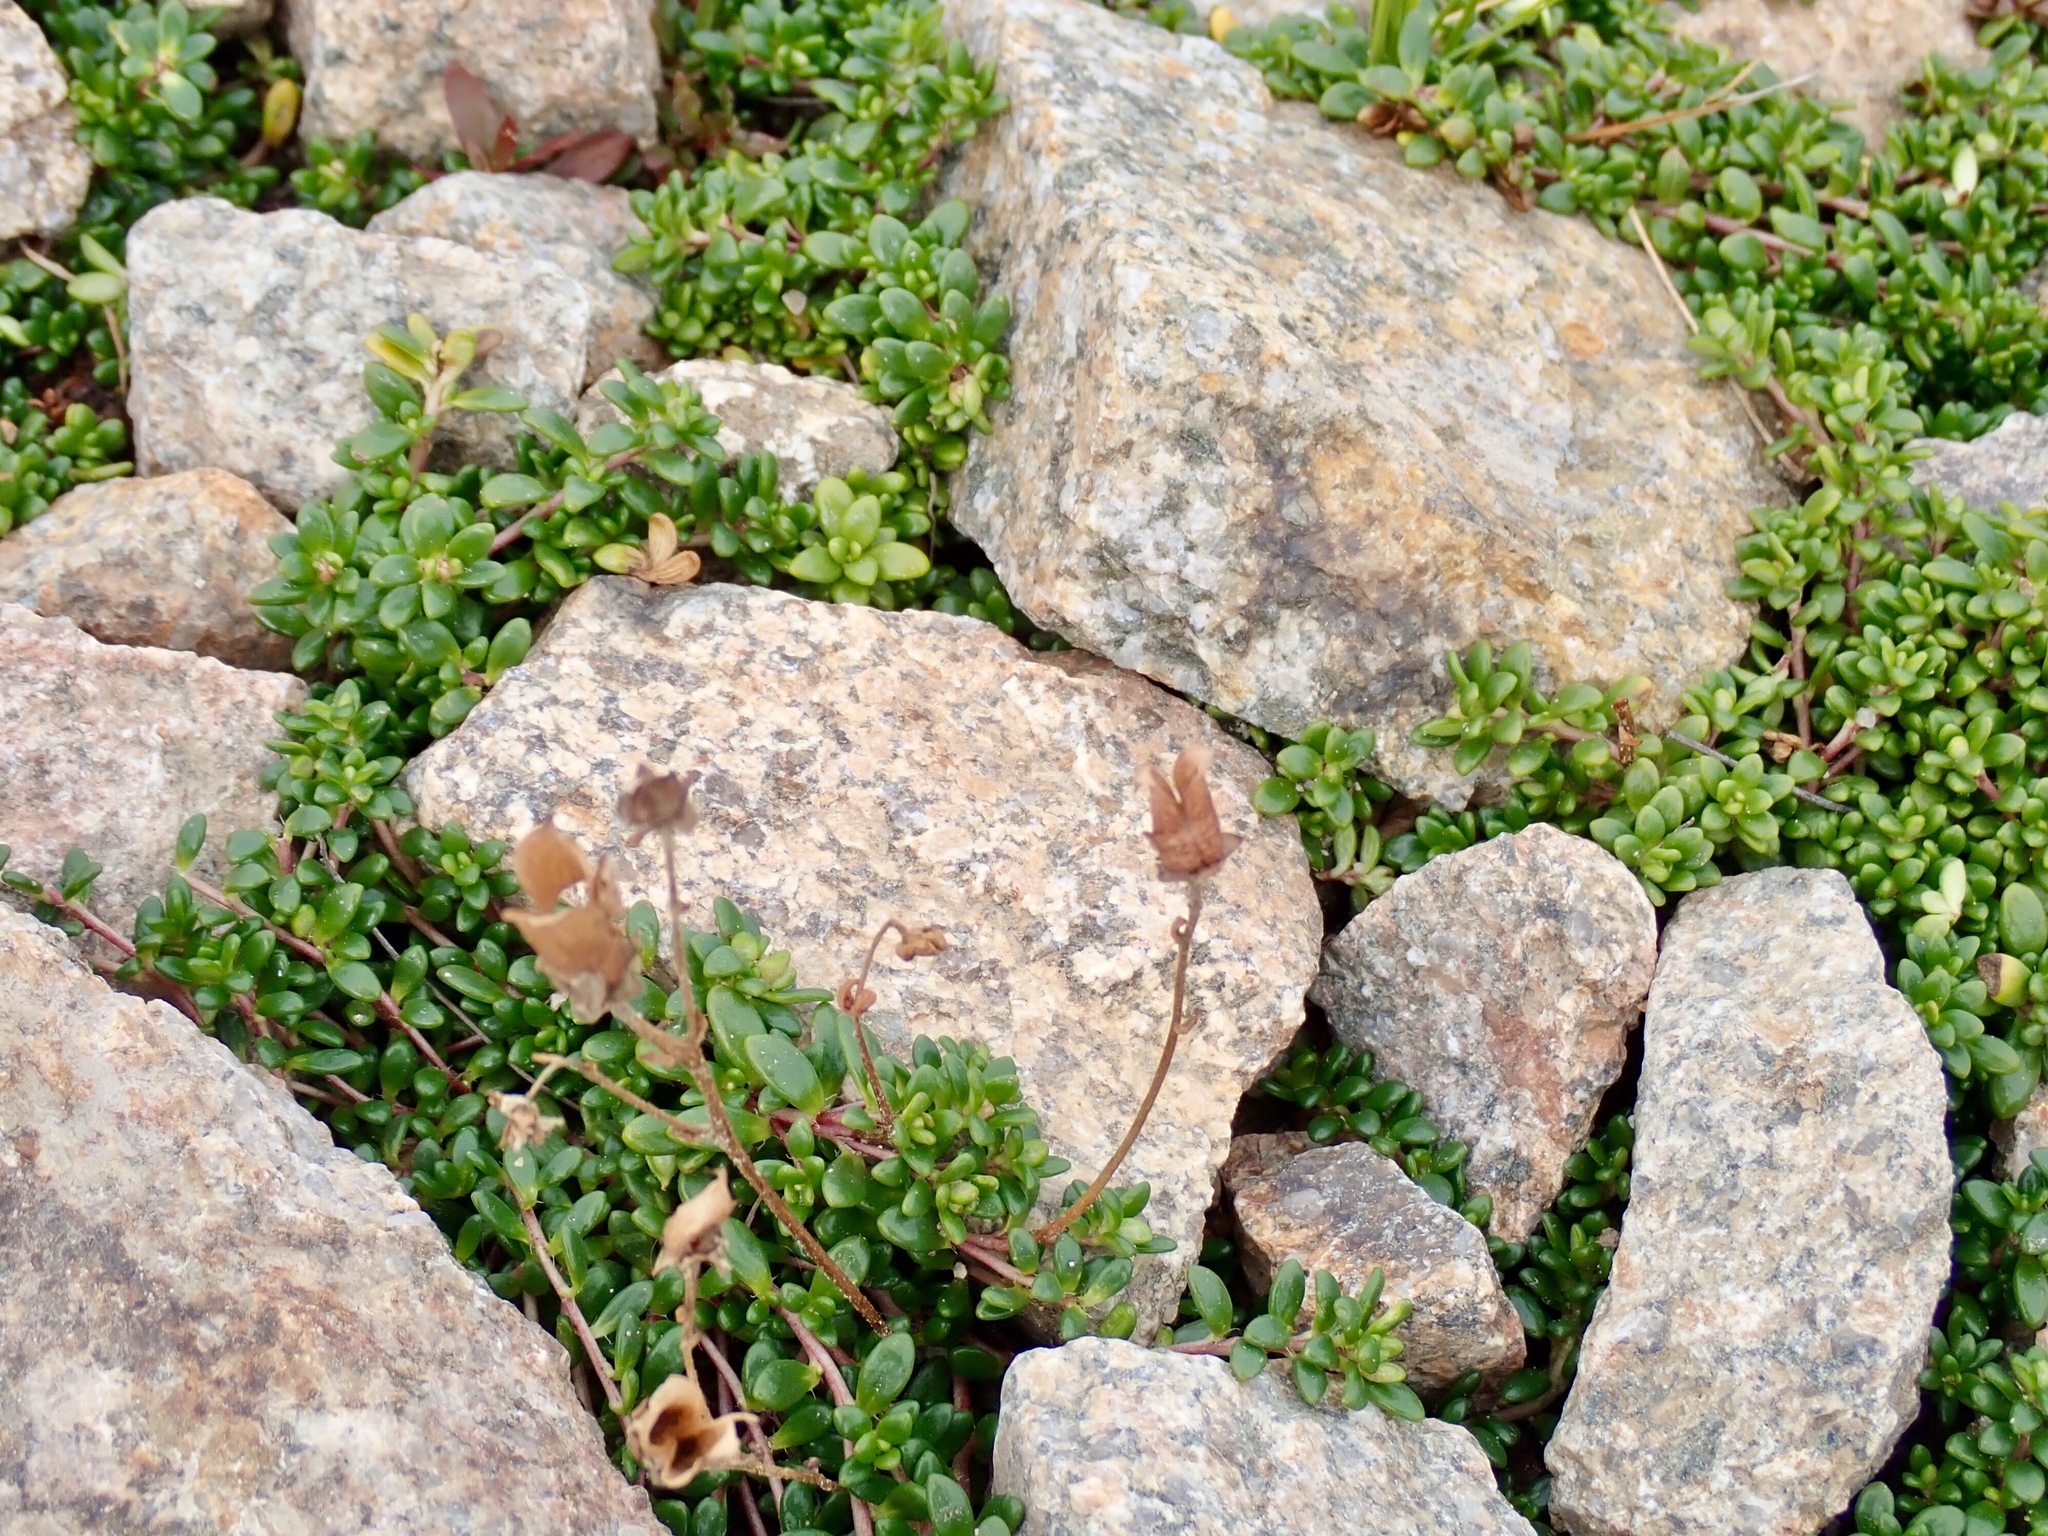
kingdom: Plantae
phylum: Tracheophyta
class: Magnoliopsida
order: Saxifragales
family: Saxifragaceae
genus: Micranthes
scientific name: Micranthes tolmiei
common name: Tolmie's saxifrage
